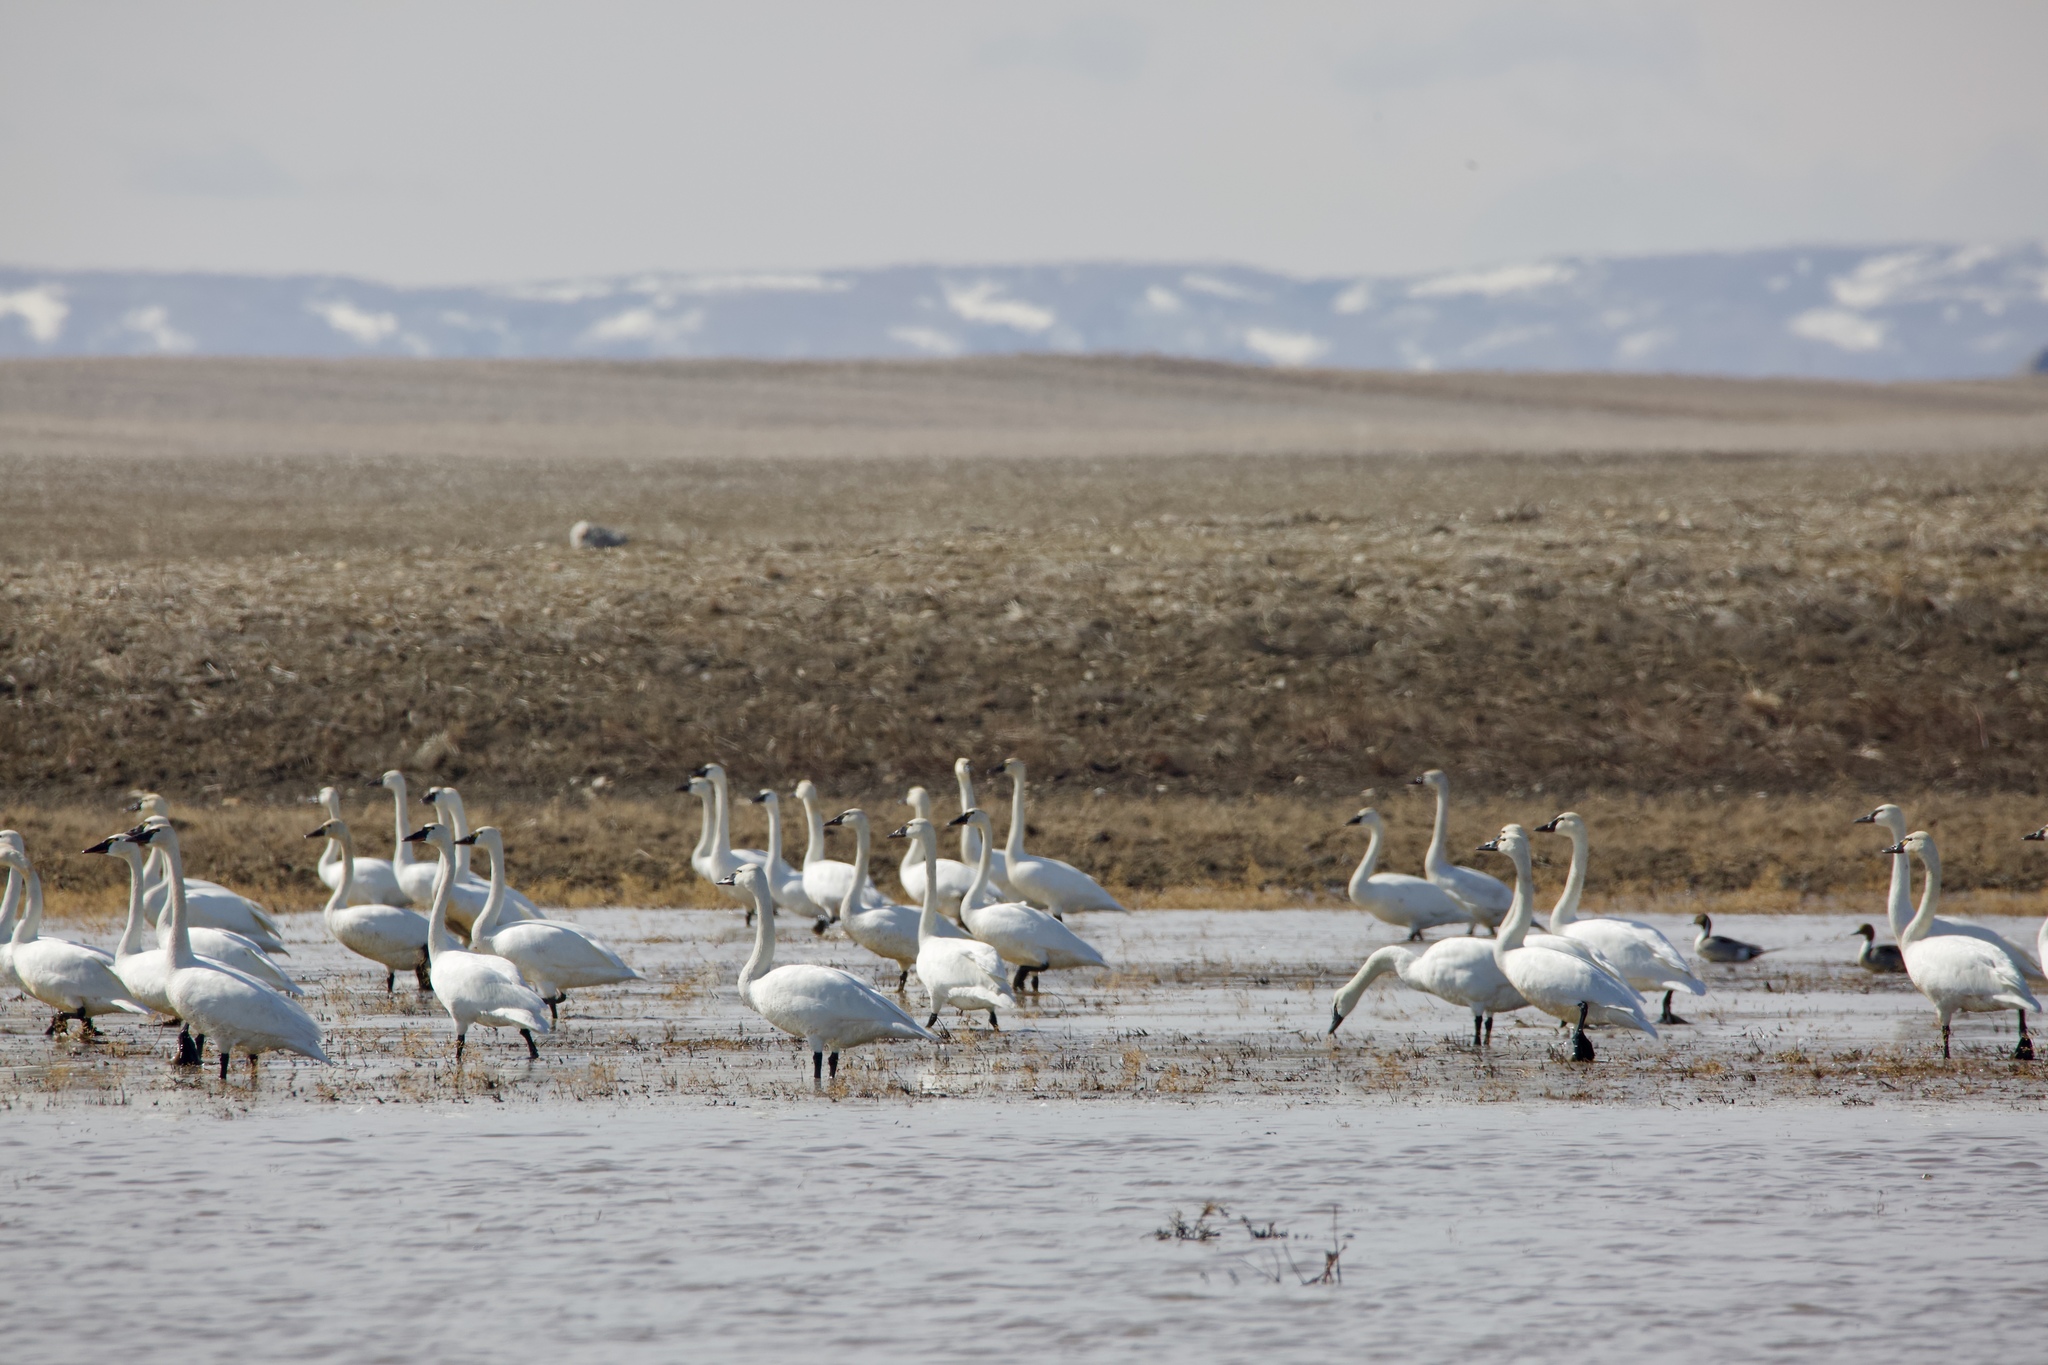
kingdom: Animalia
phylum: Chordata
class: Aves
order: Anseriformes
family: Anatidae
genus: Cygnus
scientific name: Cygnus columbianus
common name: Tundra swan
